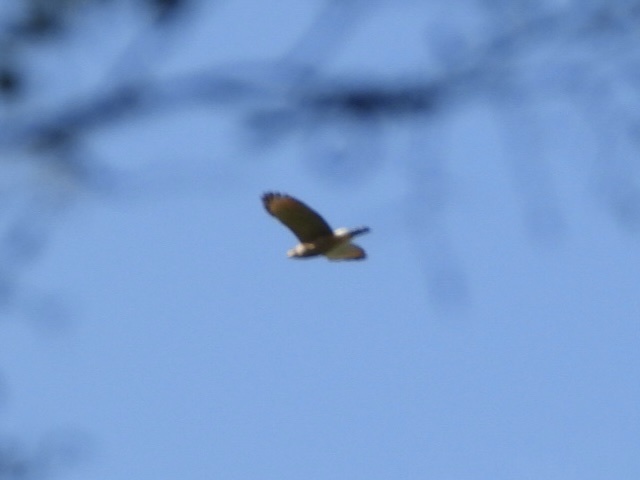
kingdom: Animalia
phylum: Chordata
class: Aves
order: Accipitriformes
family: Accipitridae
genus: Rupornis
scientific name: Rupornis magnirostris
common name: Roadside hawk
